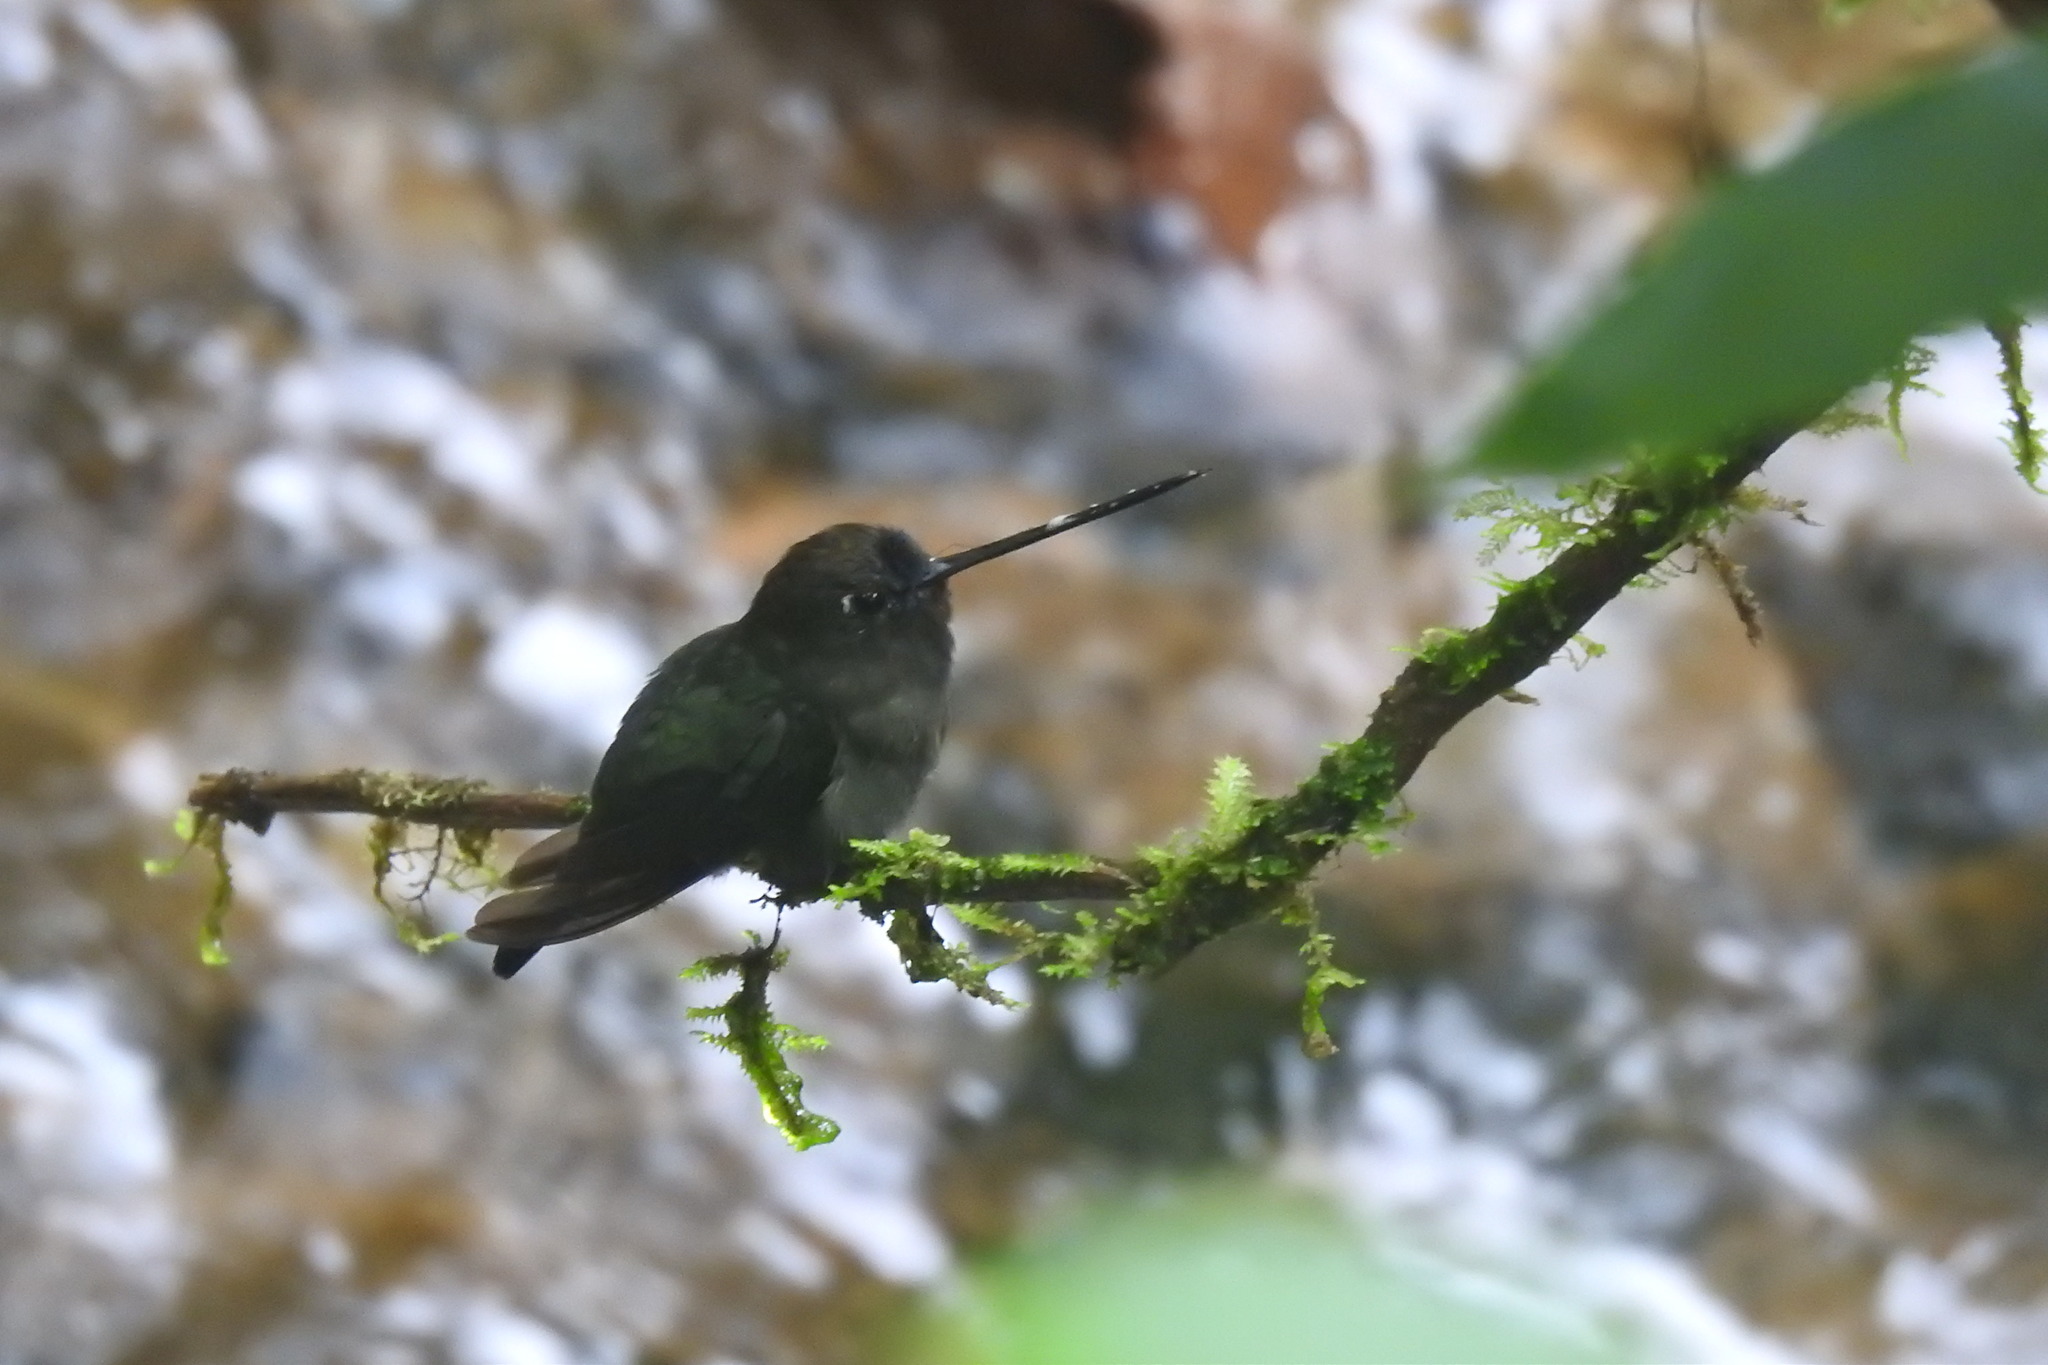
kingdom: Animalia
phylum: Chordata
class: Aves
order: Apodiformes
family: Trochilidae
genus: Doryfera
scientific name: Doryfera ludovicae
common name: Green-fronted lancebill
